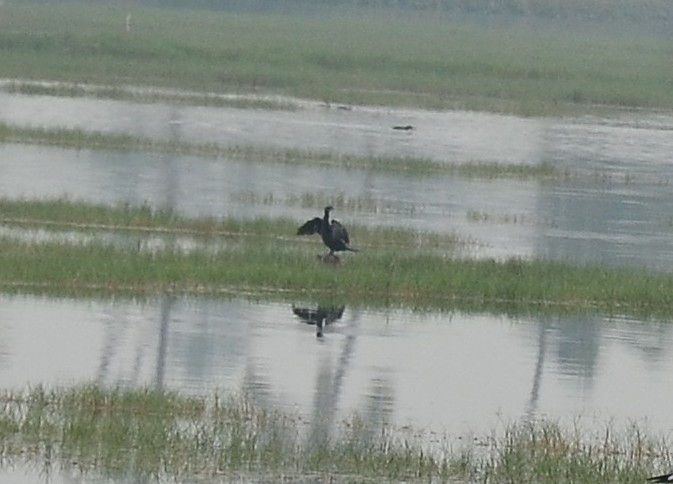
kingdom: Animalia
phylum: Chordata
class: Aves
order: Suliformes
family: Phalacrocoracidae
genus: Microcarbo
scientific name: Microcarbo niger
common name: Little cormorant
